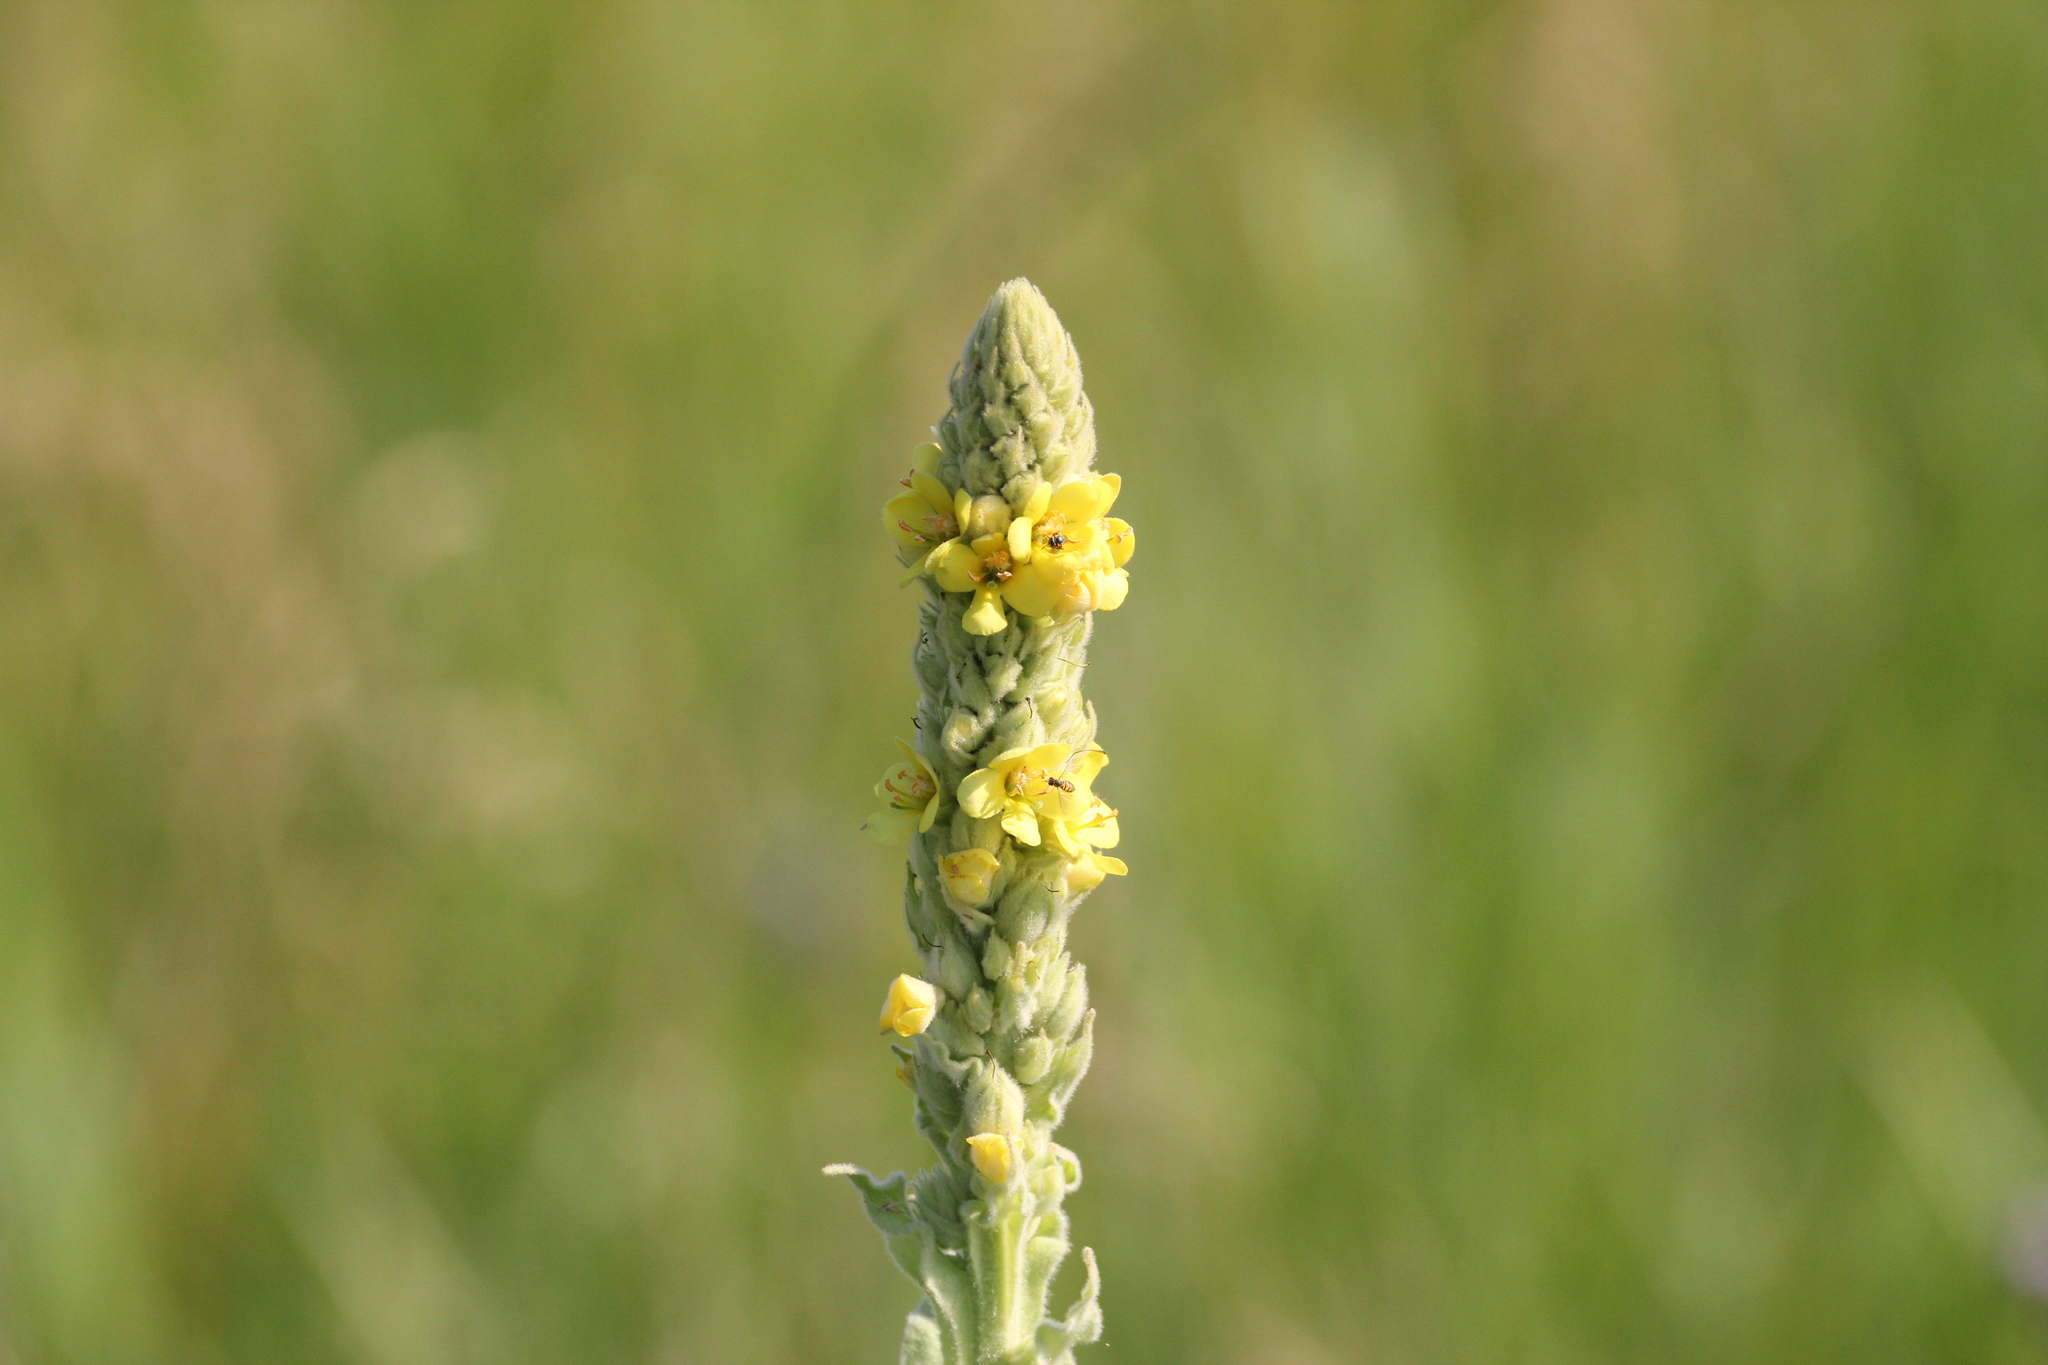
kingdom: Plantae
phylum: Tracheophyta
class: Magnoliopsida
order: Lamiales
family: Scrophulariaceae
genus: Verbascum
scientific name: Verbascum thapsus
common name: Common mullein
